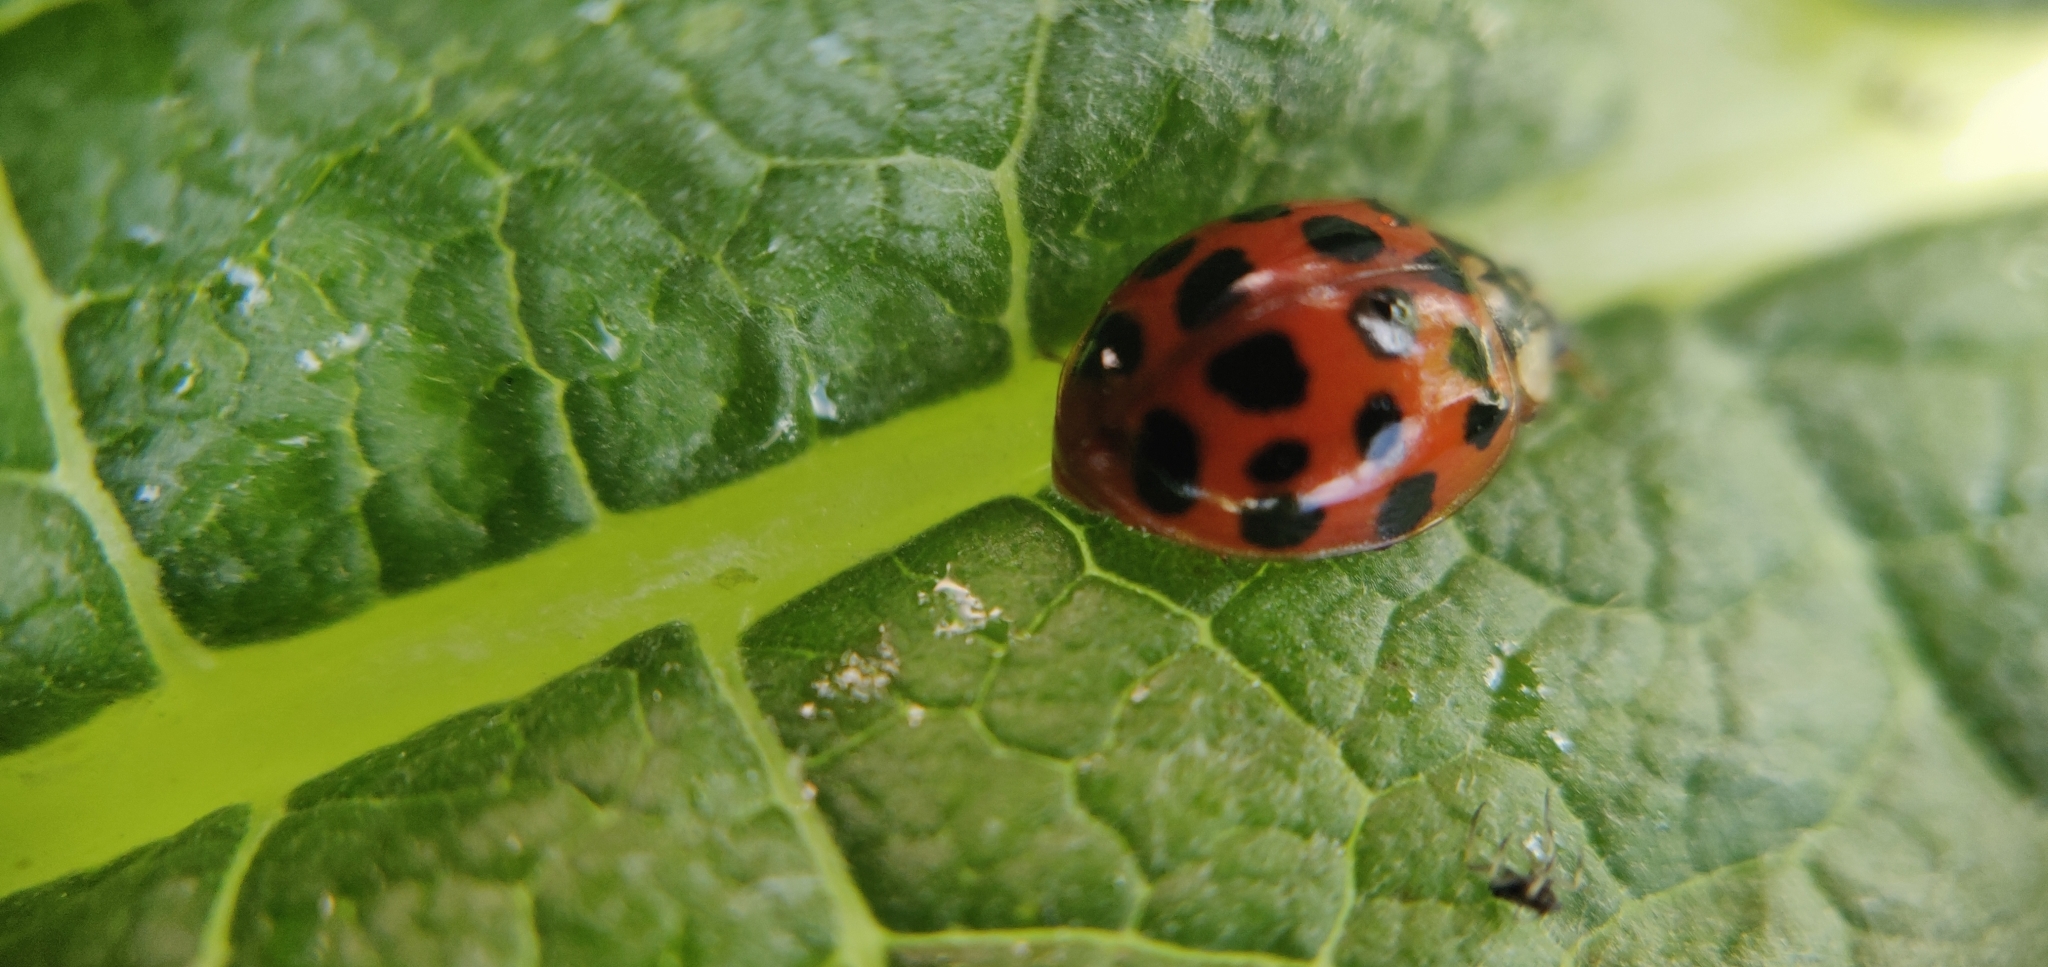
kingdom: Animalia
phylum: Arthropoda
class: Insecta
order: Coleoptera
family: Coccinellidae
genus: Harmonia
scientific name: Harmonia axyridis
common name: Harlequin ladybird
